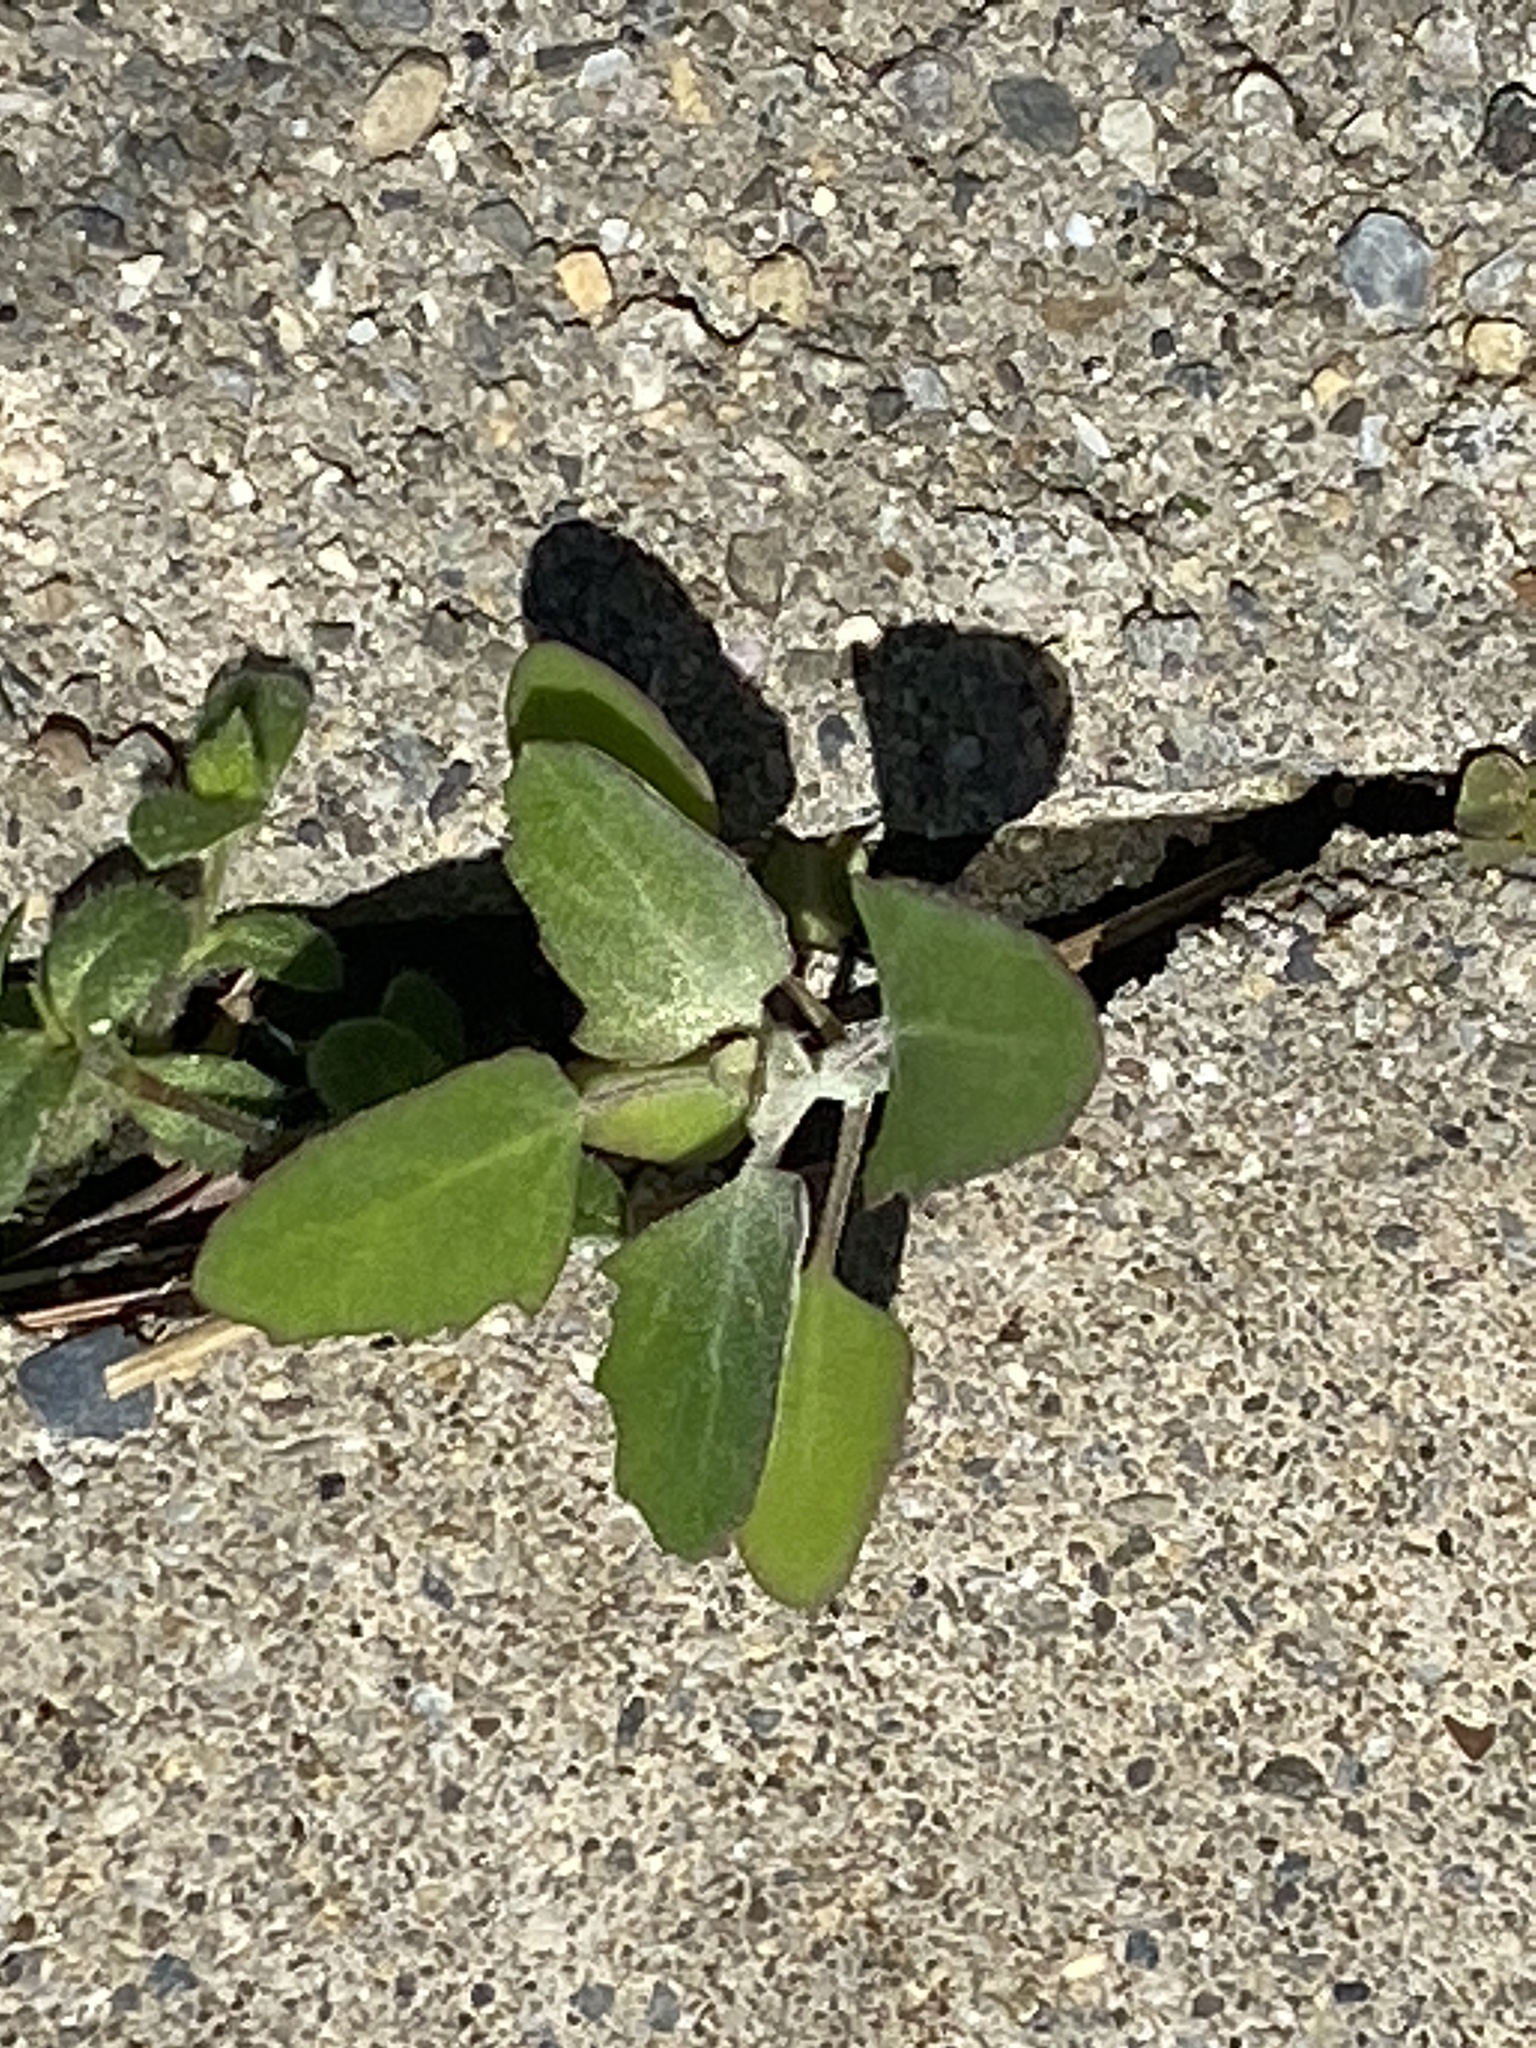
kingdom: Plantae
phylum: Tracheophyta
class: Magnoliopsida
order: Caryophyllales
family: Amaranthaceae
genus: Chenopodium
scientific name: Chenopodium album
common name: Fat-hen
